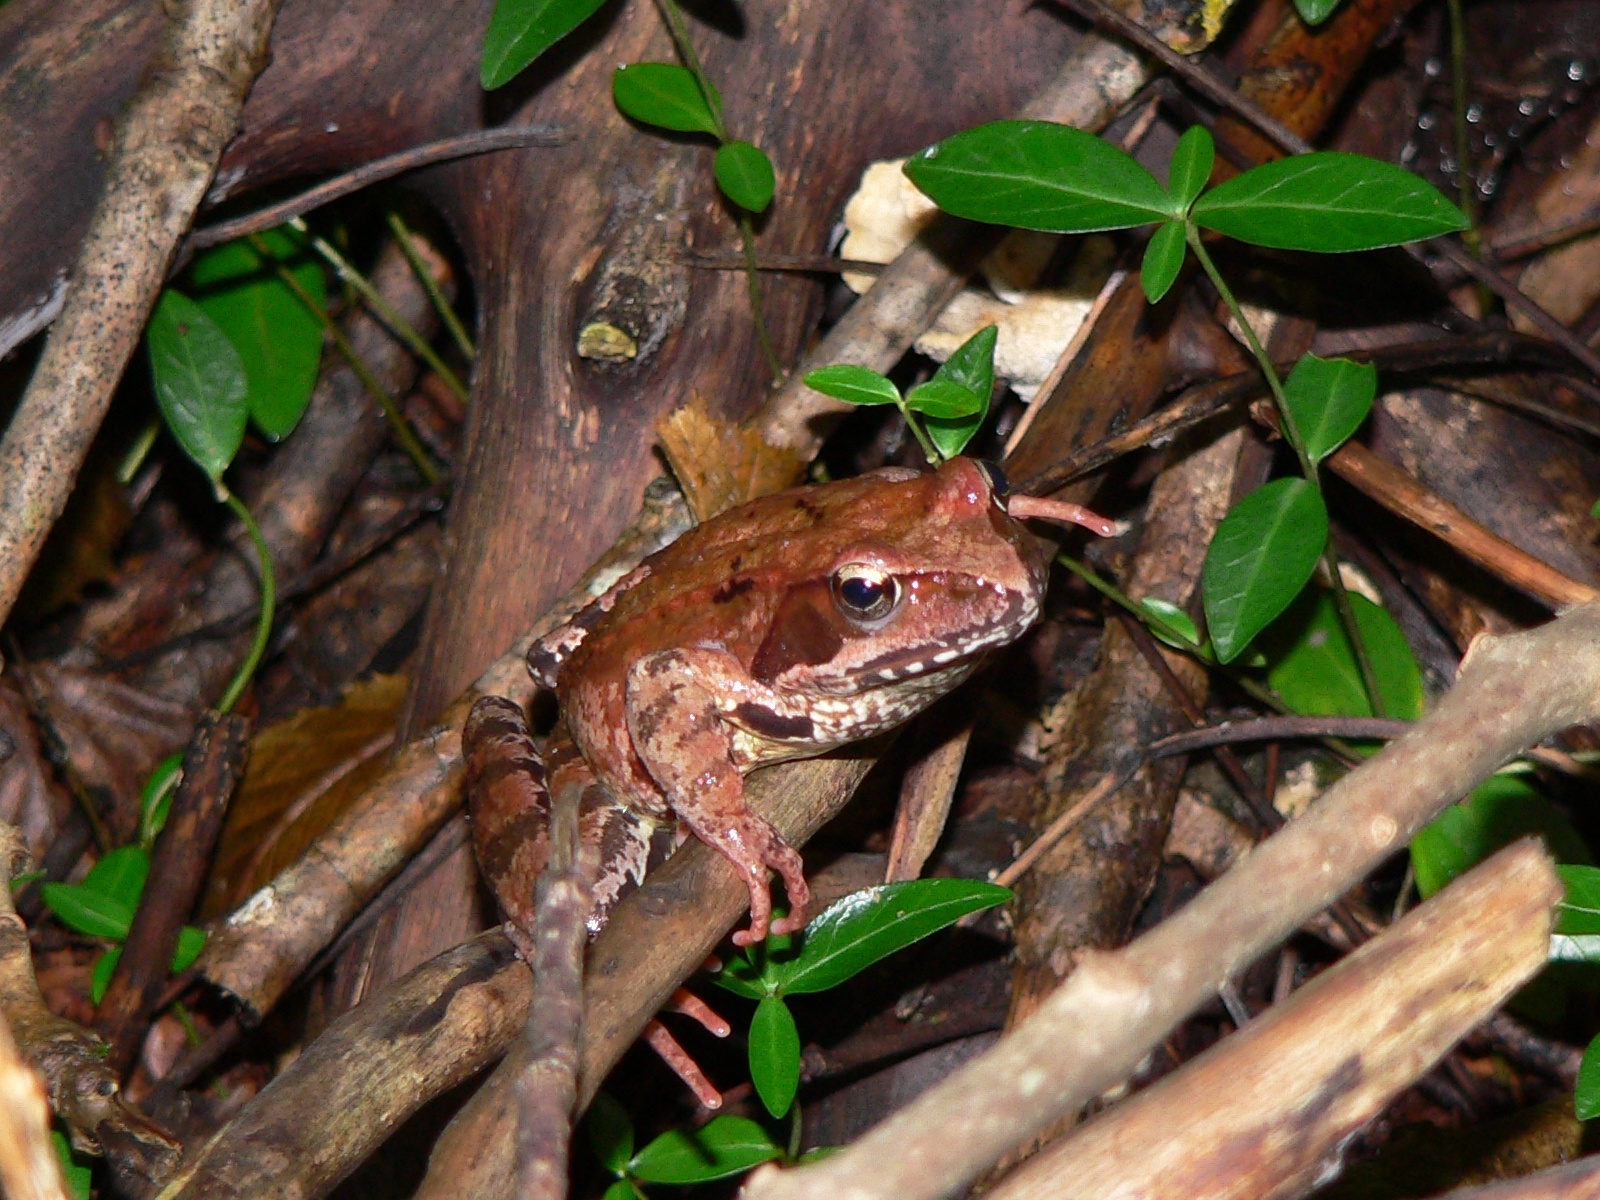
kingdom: Animalia
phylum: Chordata
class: Amphibia
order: Anura
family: Ranidae
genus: Rana
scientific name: Rana temporaria
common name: Common frog
